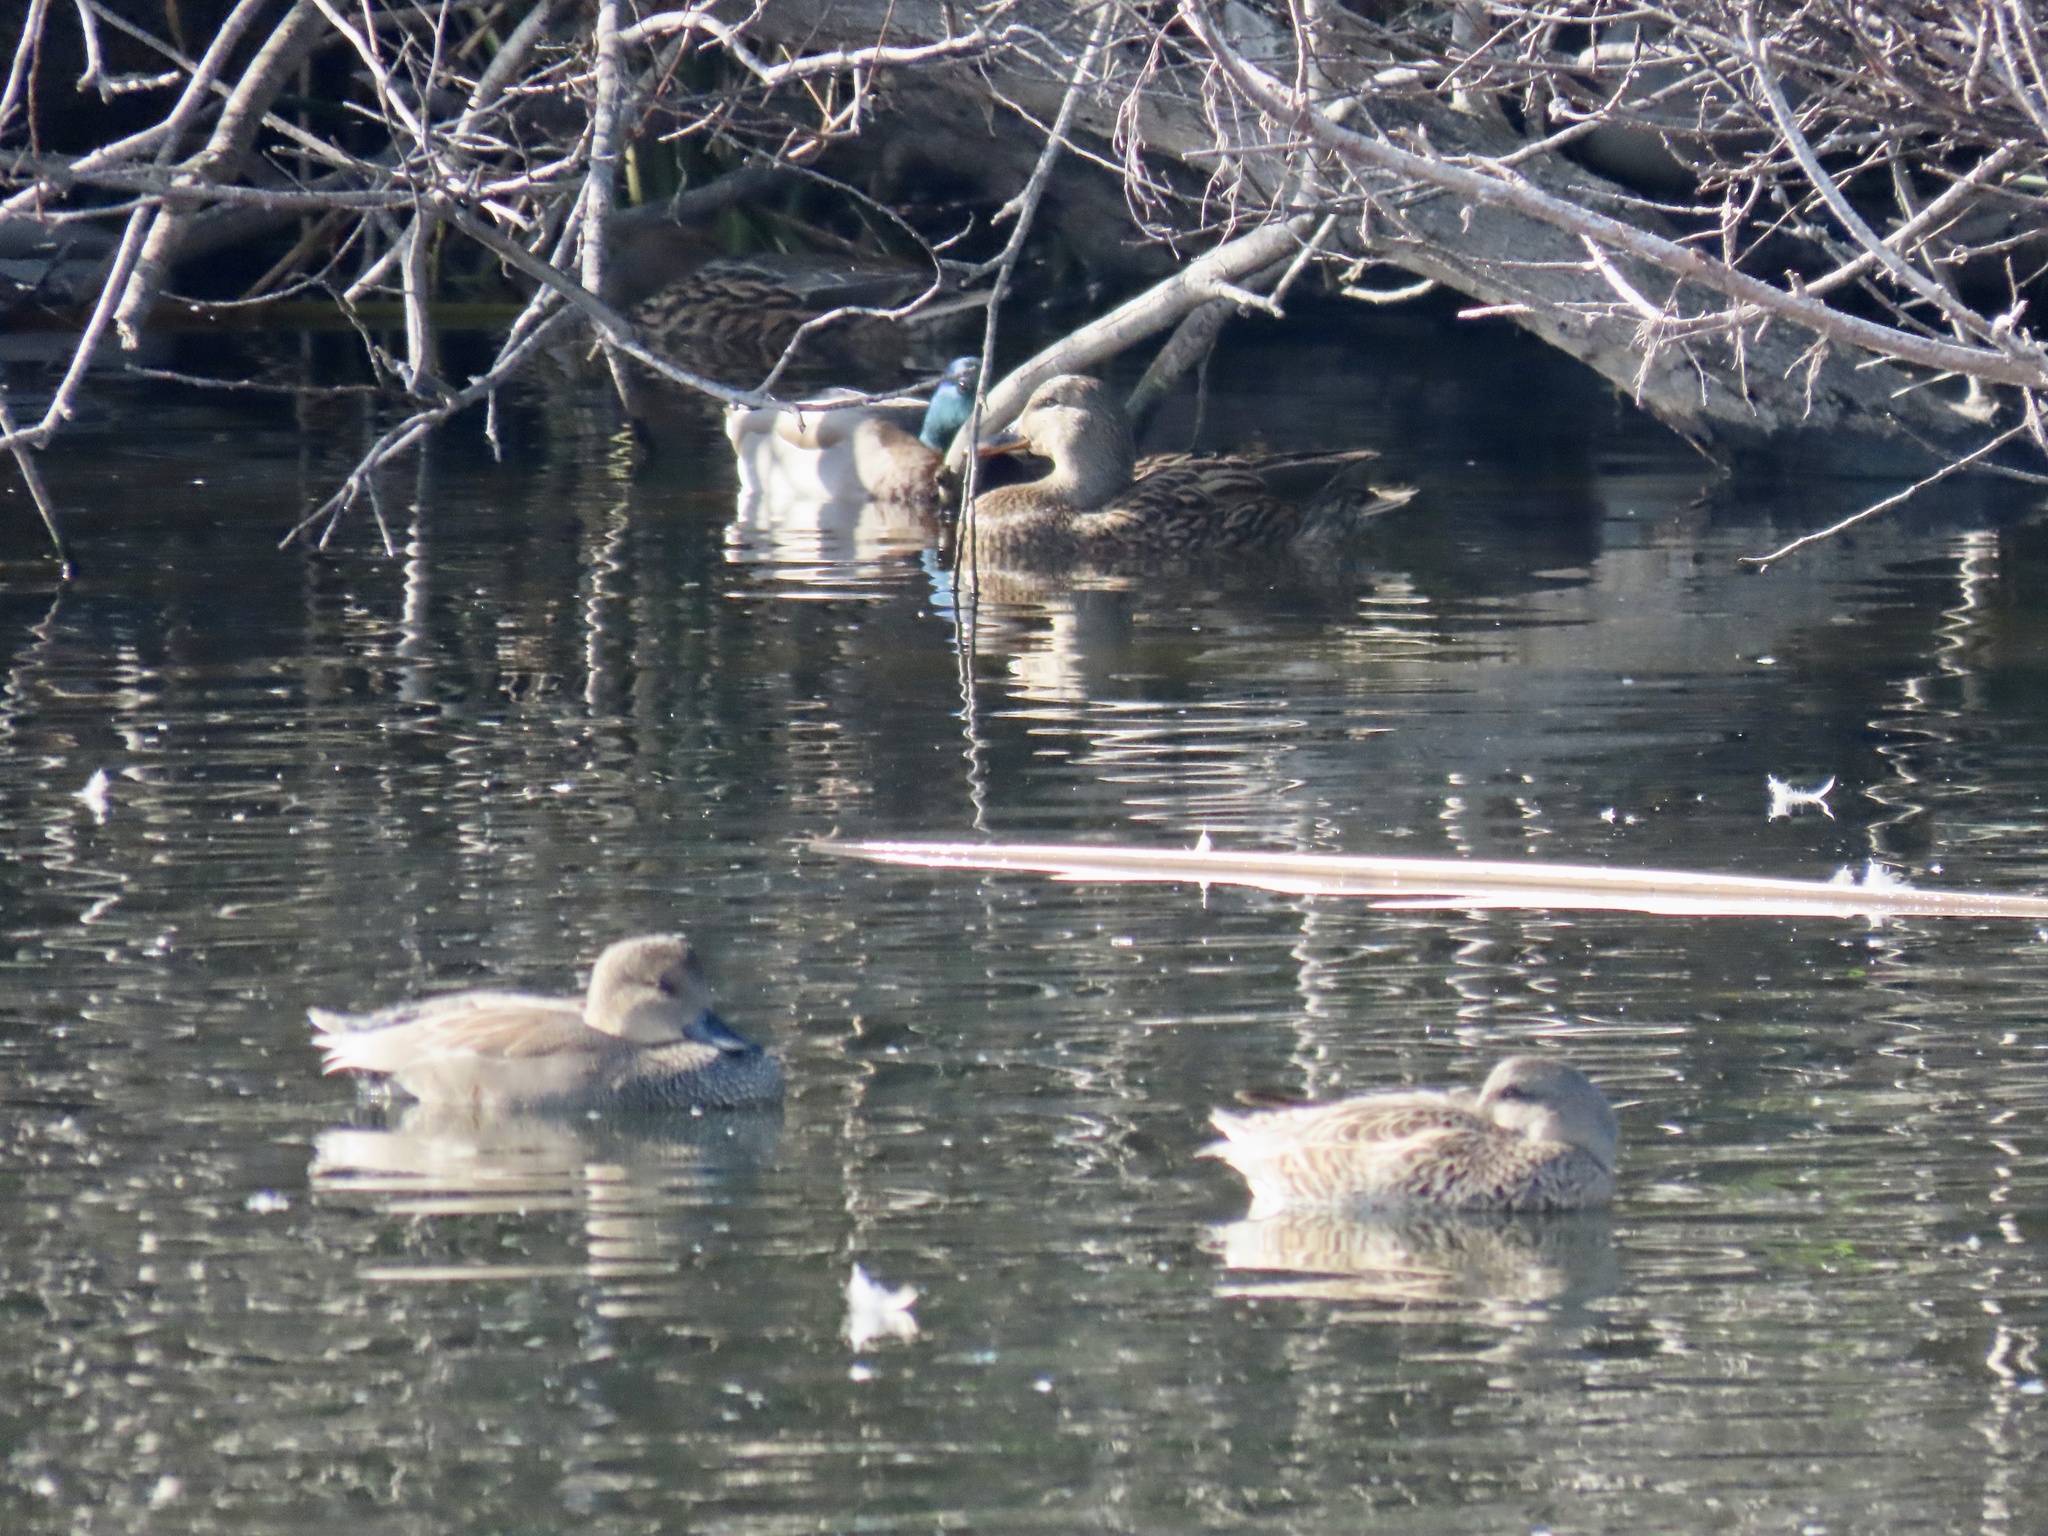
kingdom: Animalia
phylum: Chordata
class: Aves
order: Anseriformes
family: Anatidae
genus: Mareca
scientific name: Mareca strepera
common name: Gadwall
